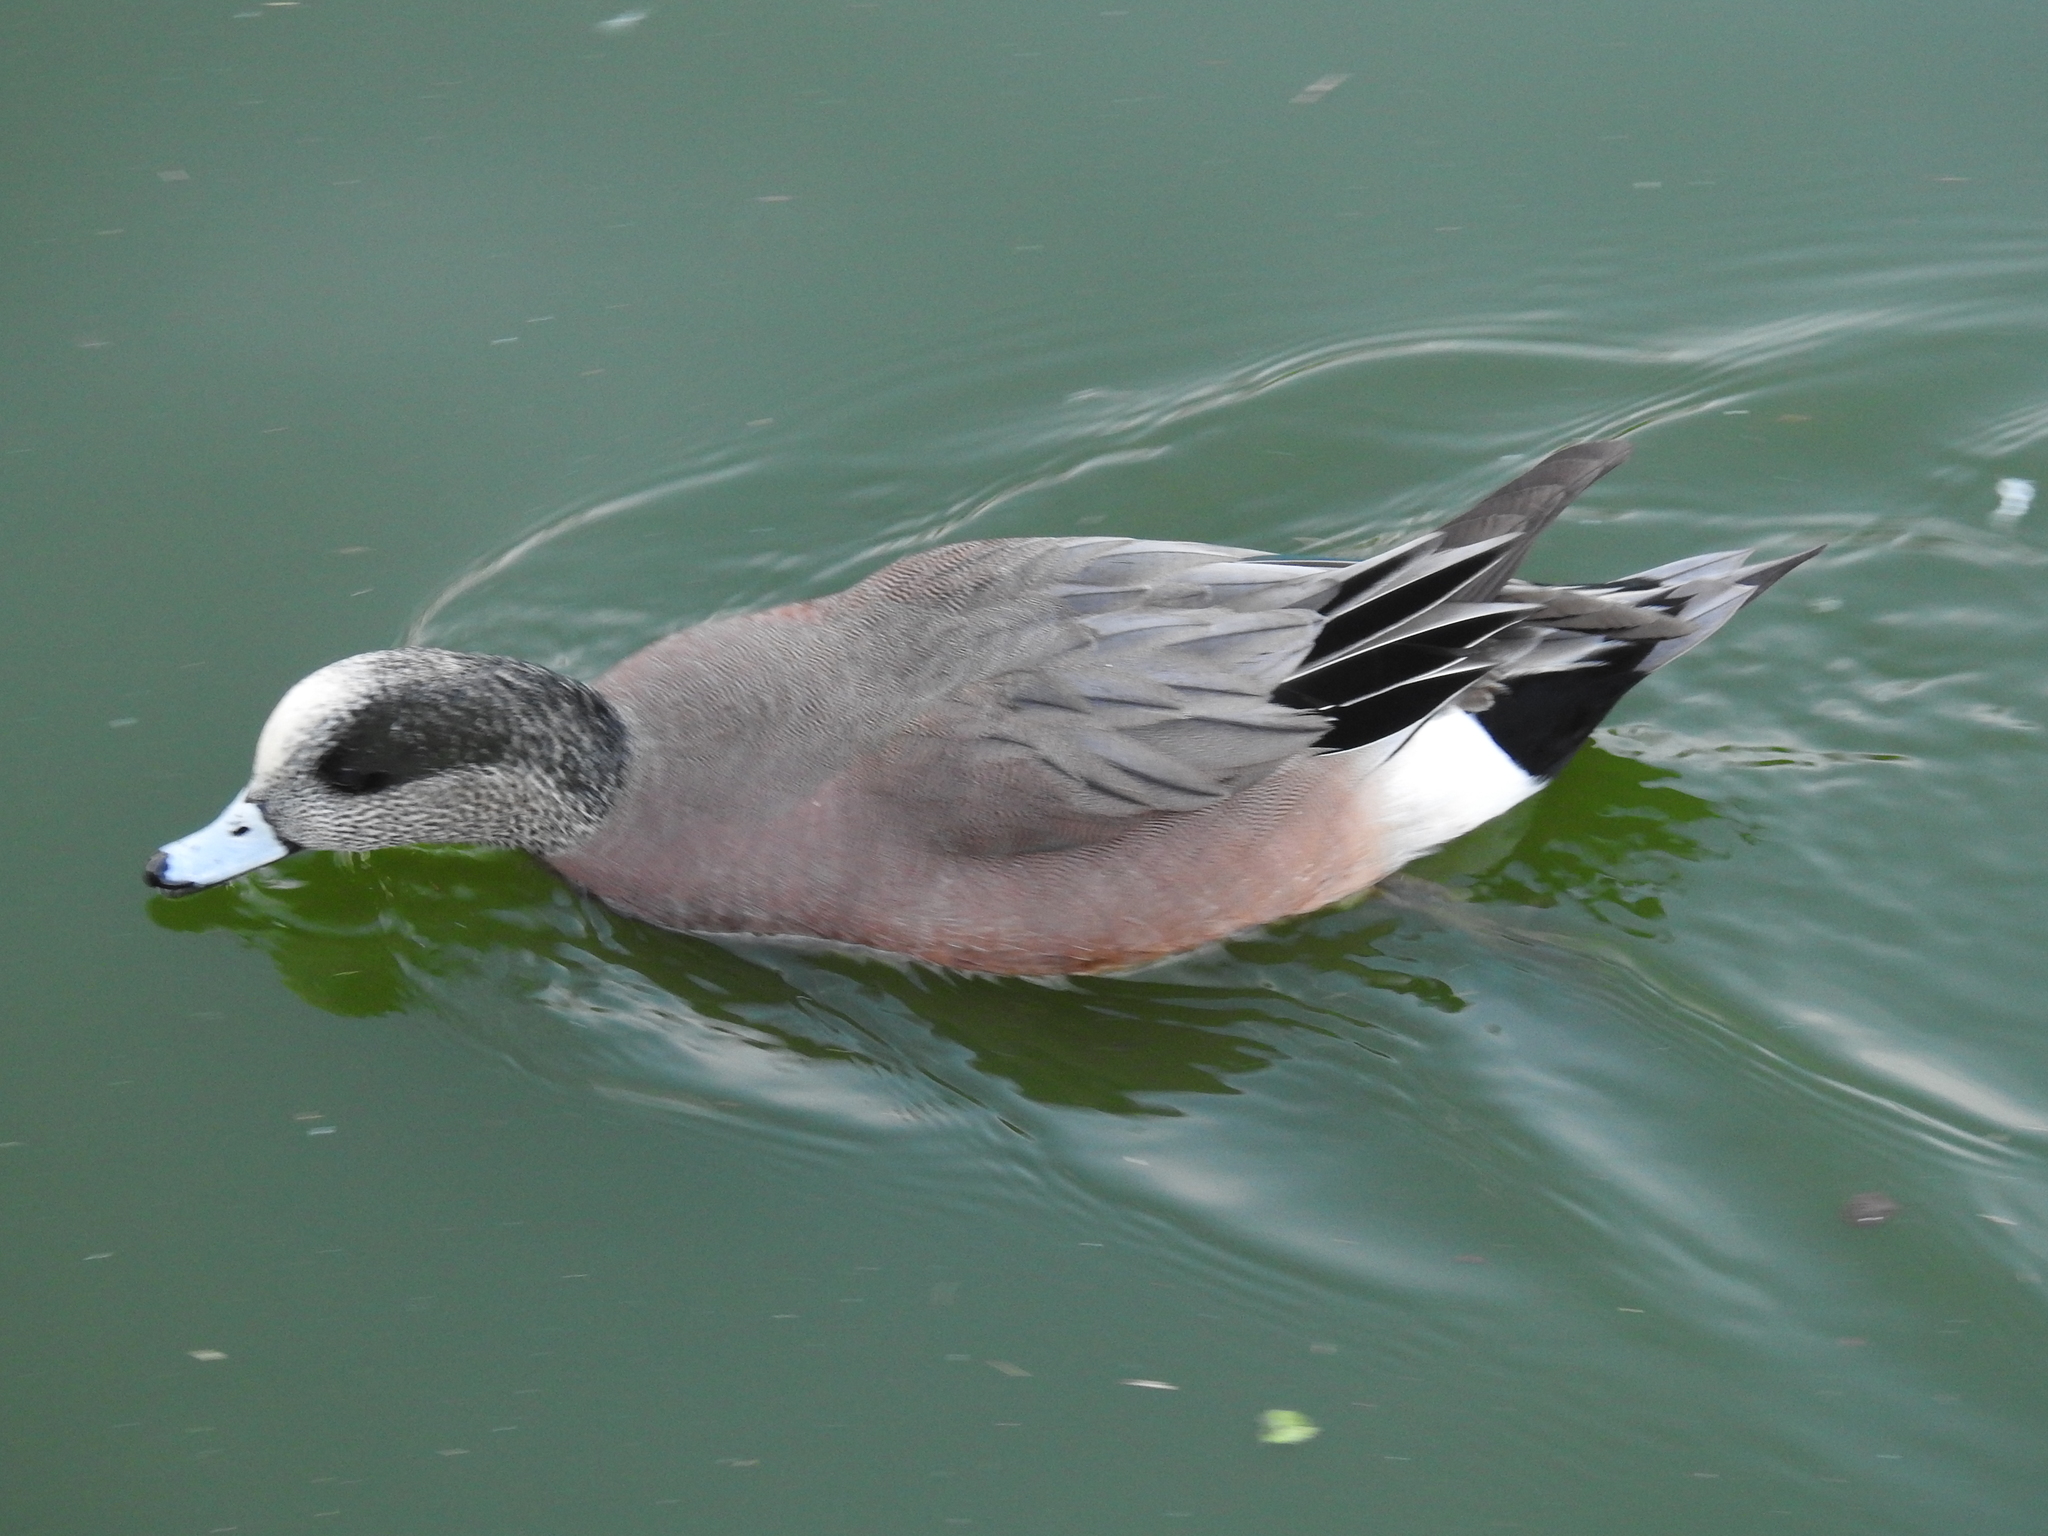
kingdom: Animalia
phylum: Chordata
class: Aves
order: Anseriformes
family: Anatidae
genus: Mareca
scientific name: Mareca americana
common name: American wigeon
